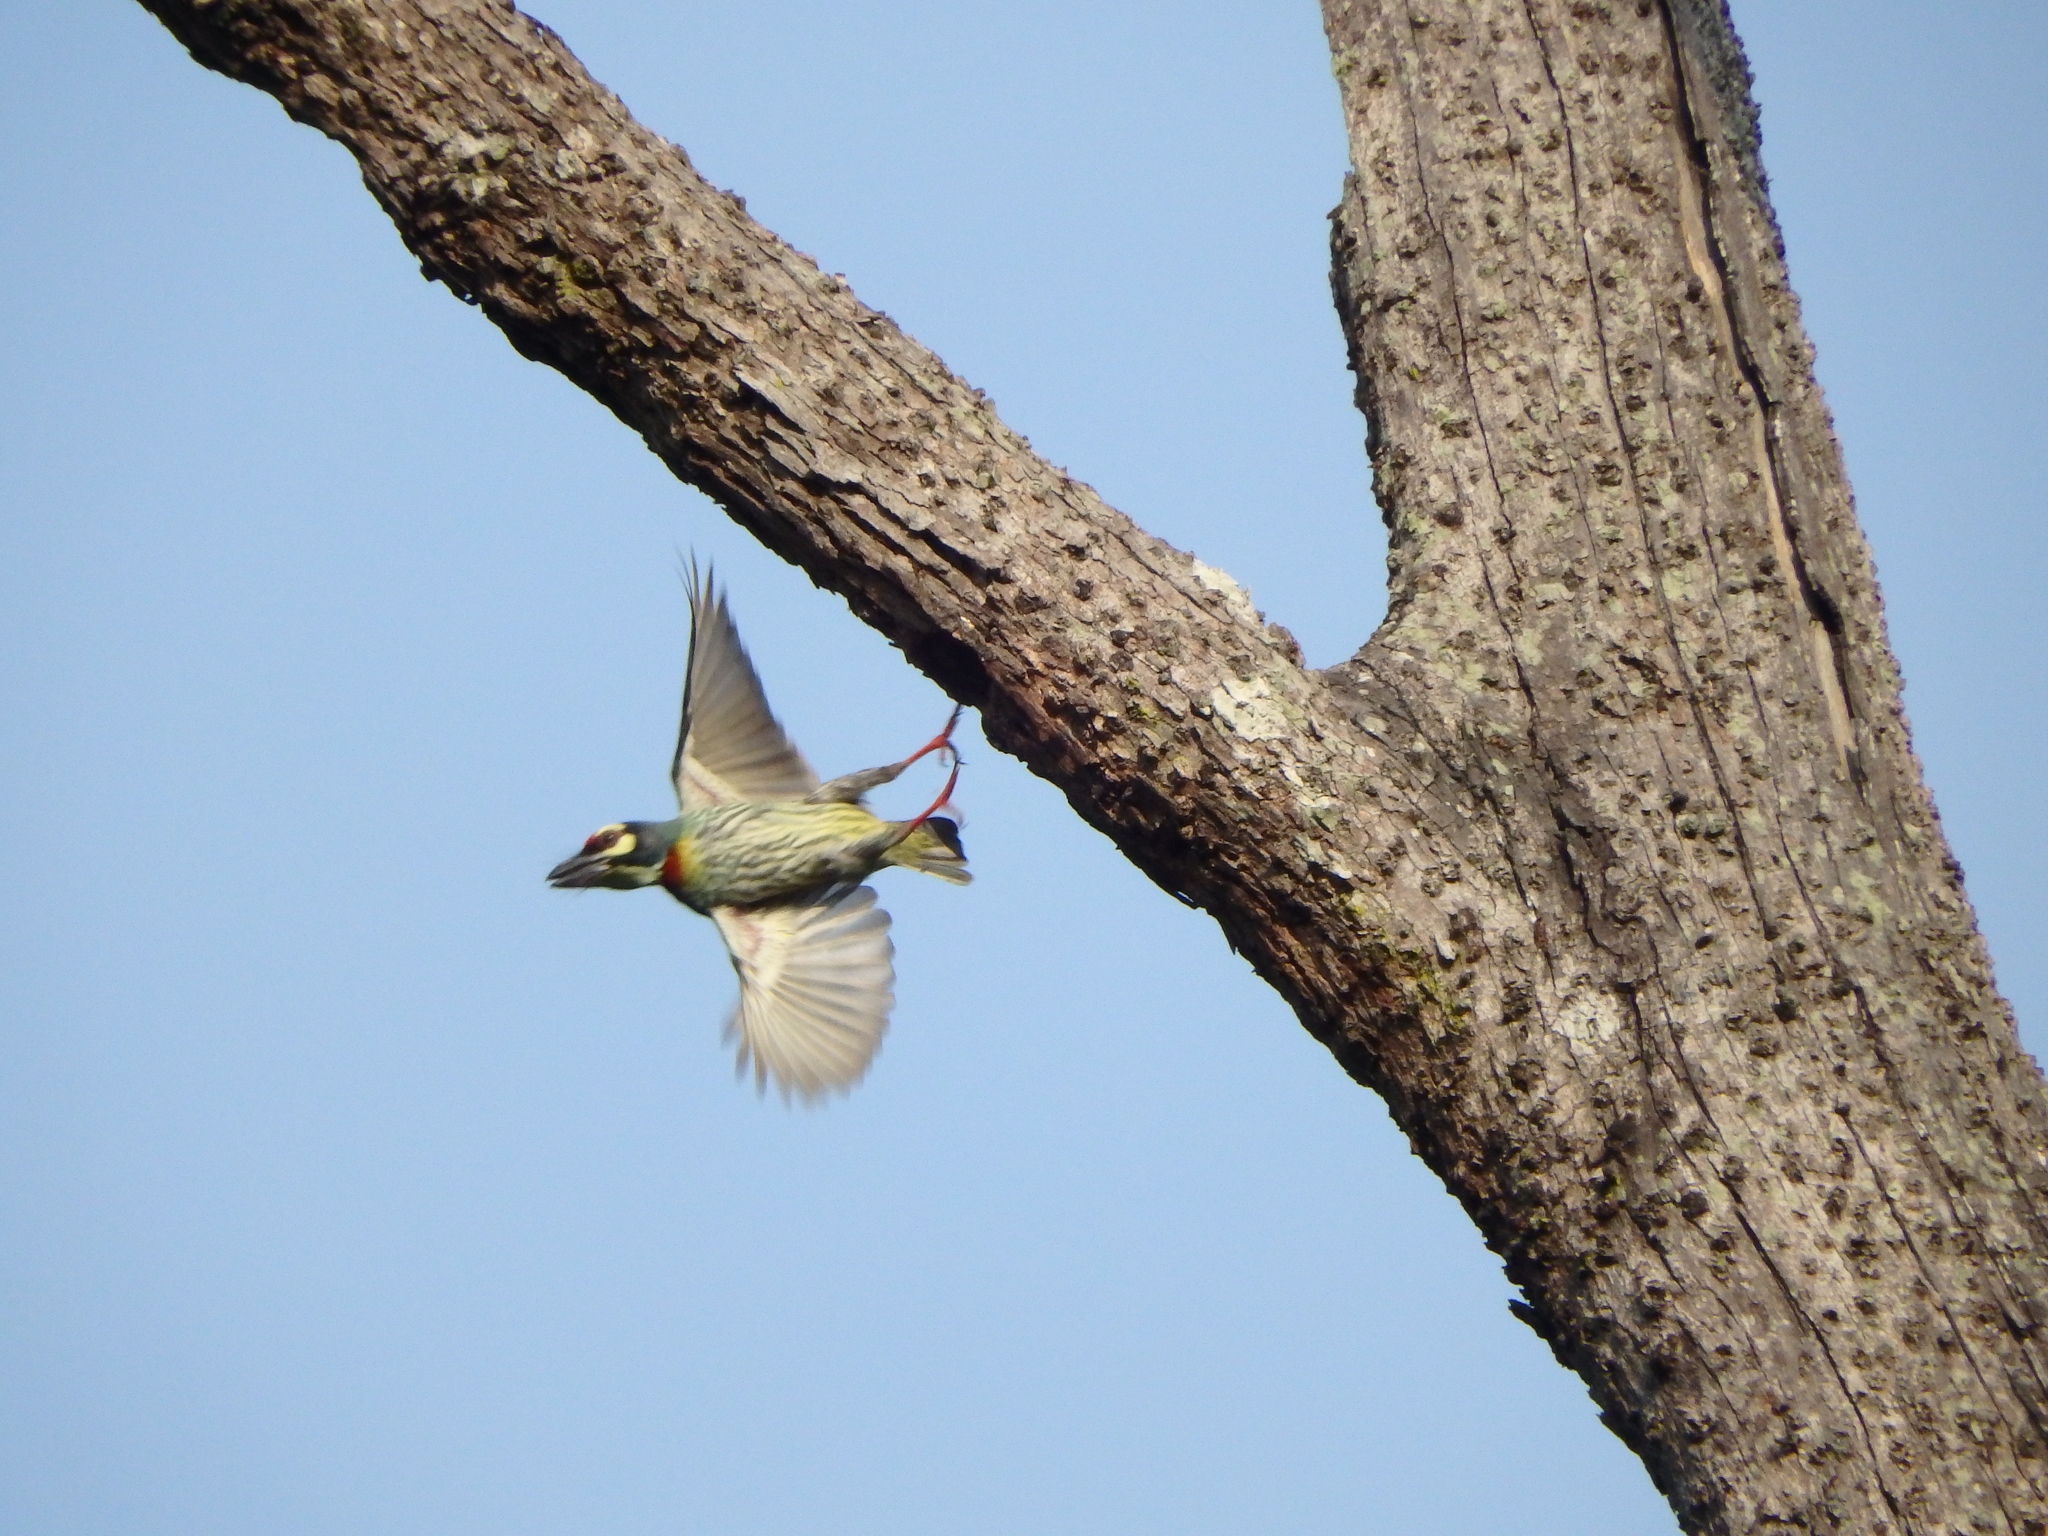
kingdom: Animalia
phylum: Chordata
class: Aves
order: Piciformes
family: Megalaimidae
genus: Psilopogon
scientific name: Psilopogon haemacephalus
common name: Coppersmith barbet
